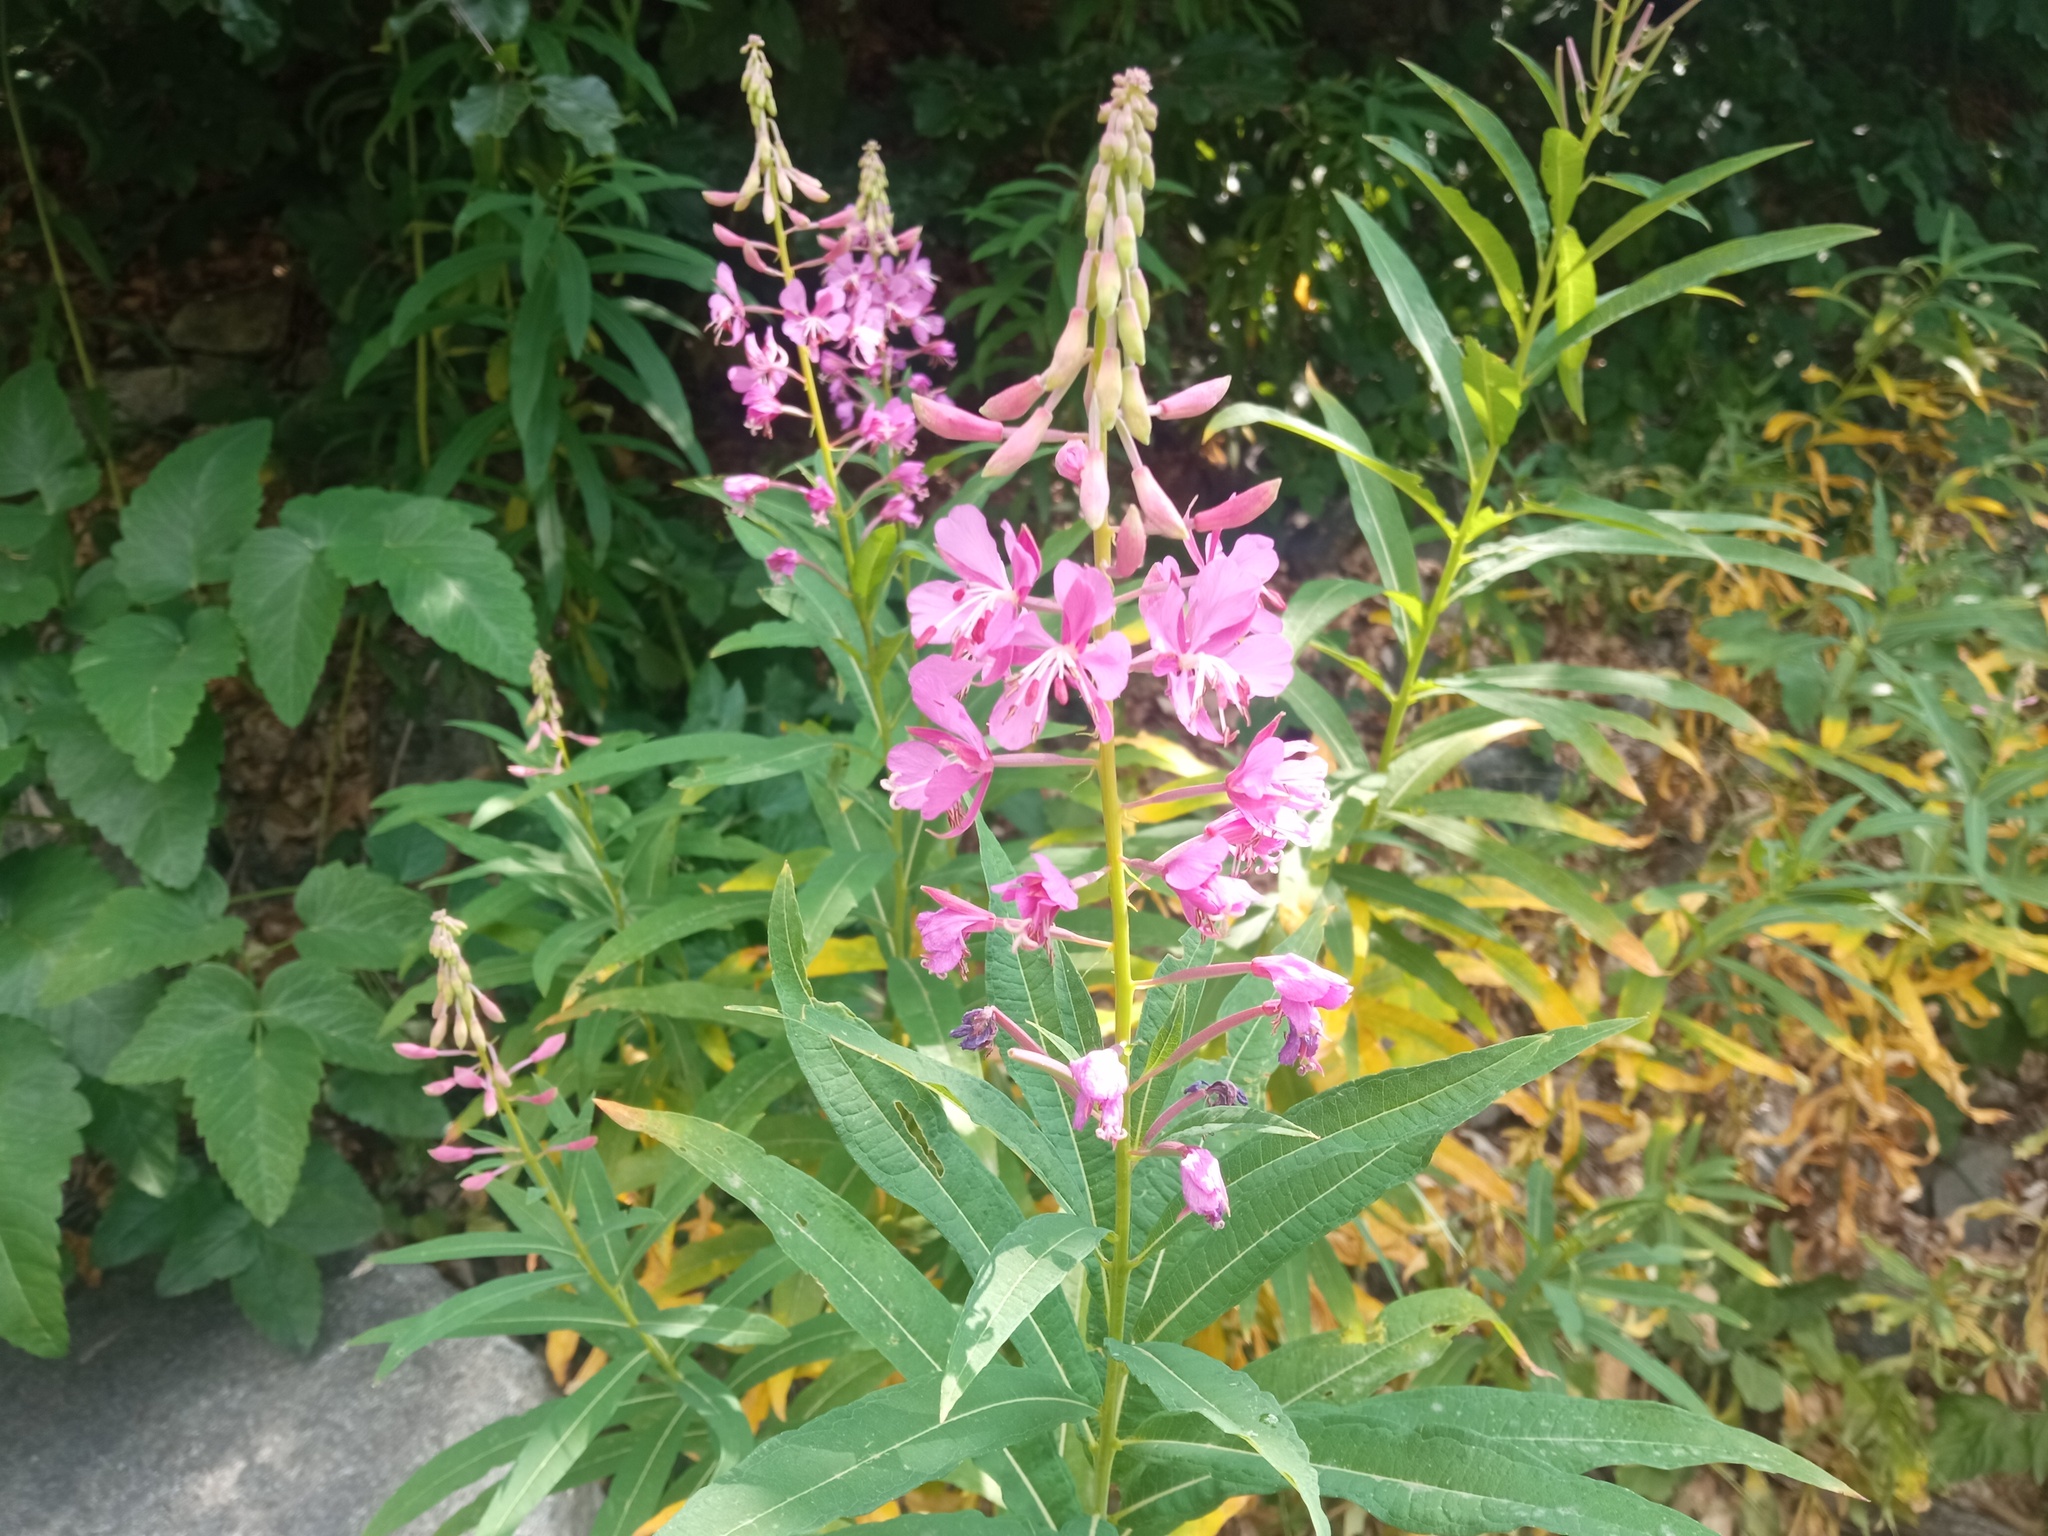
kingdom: Plantae
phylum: Tracheophyta
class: Magnoliopsida
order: Myrtales
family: Onagraceae
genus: Chamaenerion
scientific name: Chamaenerion angustifolium
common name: Fireweed
